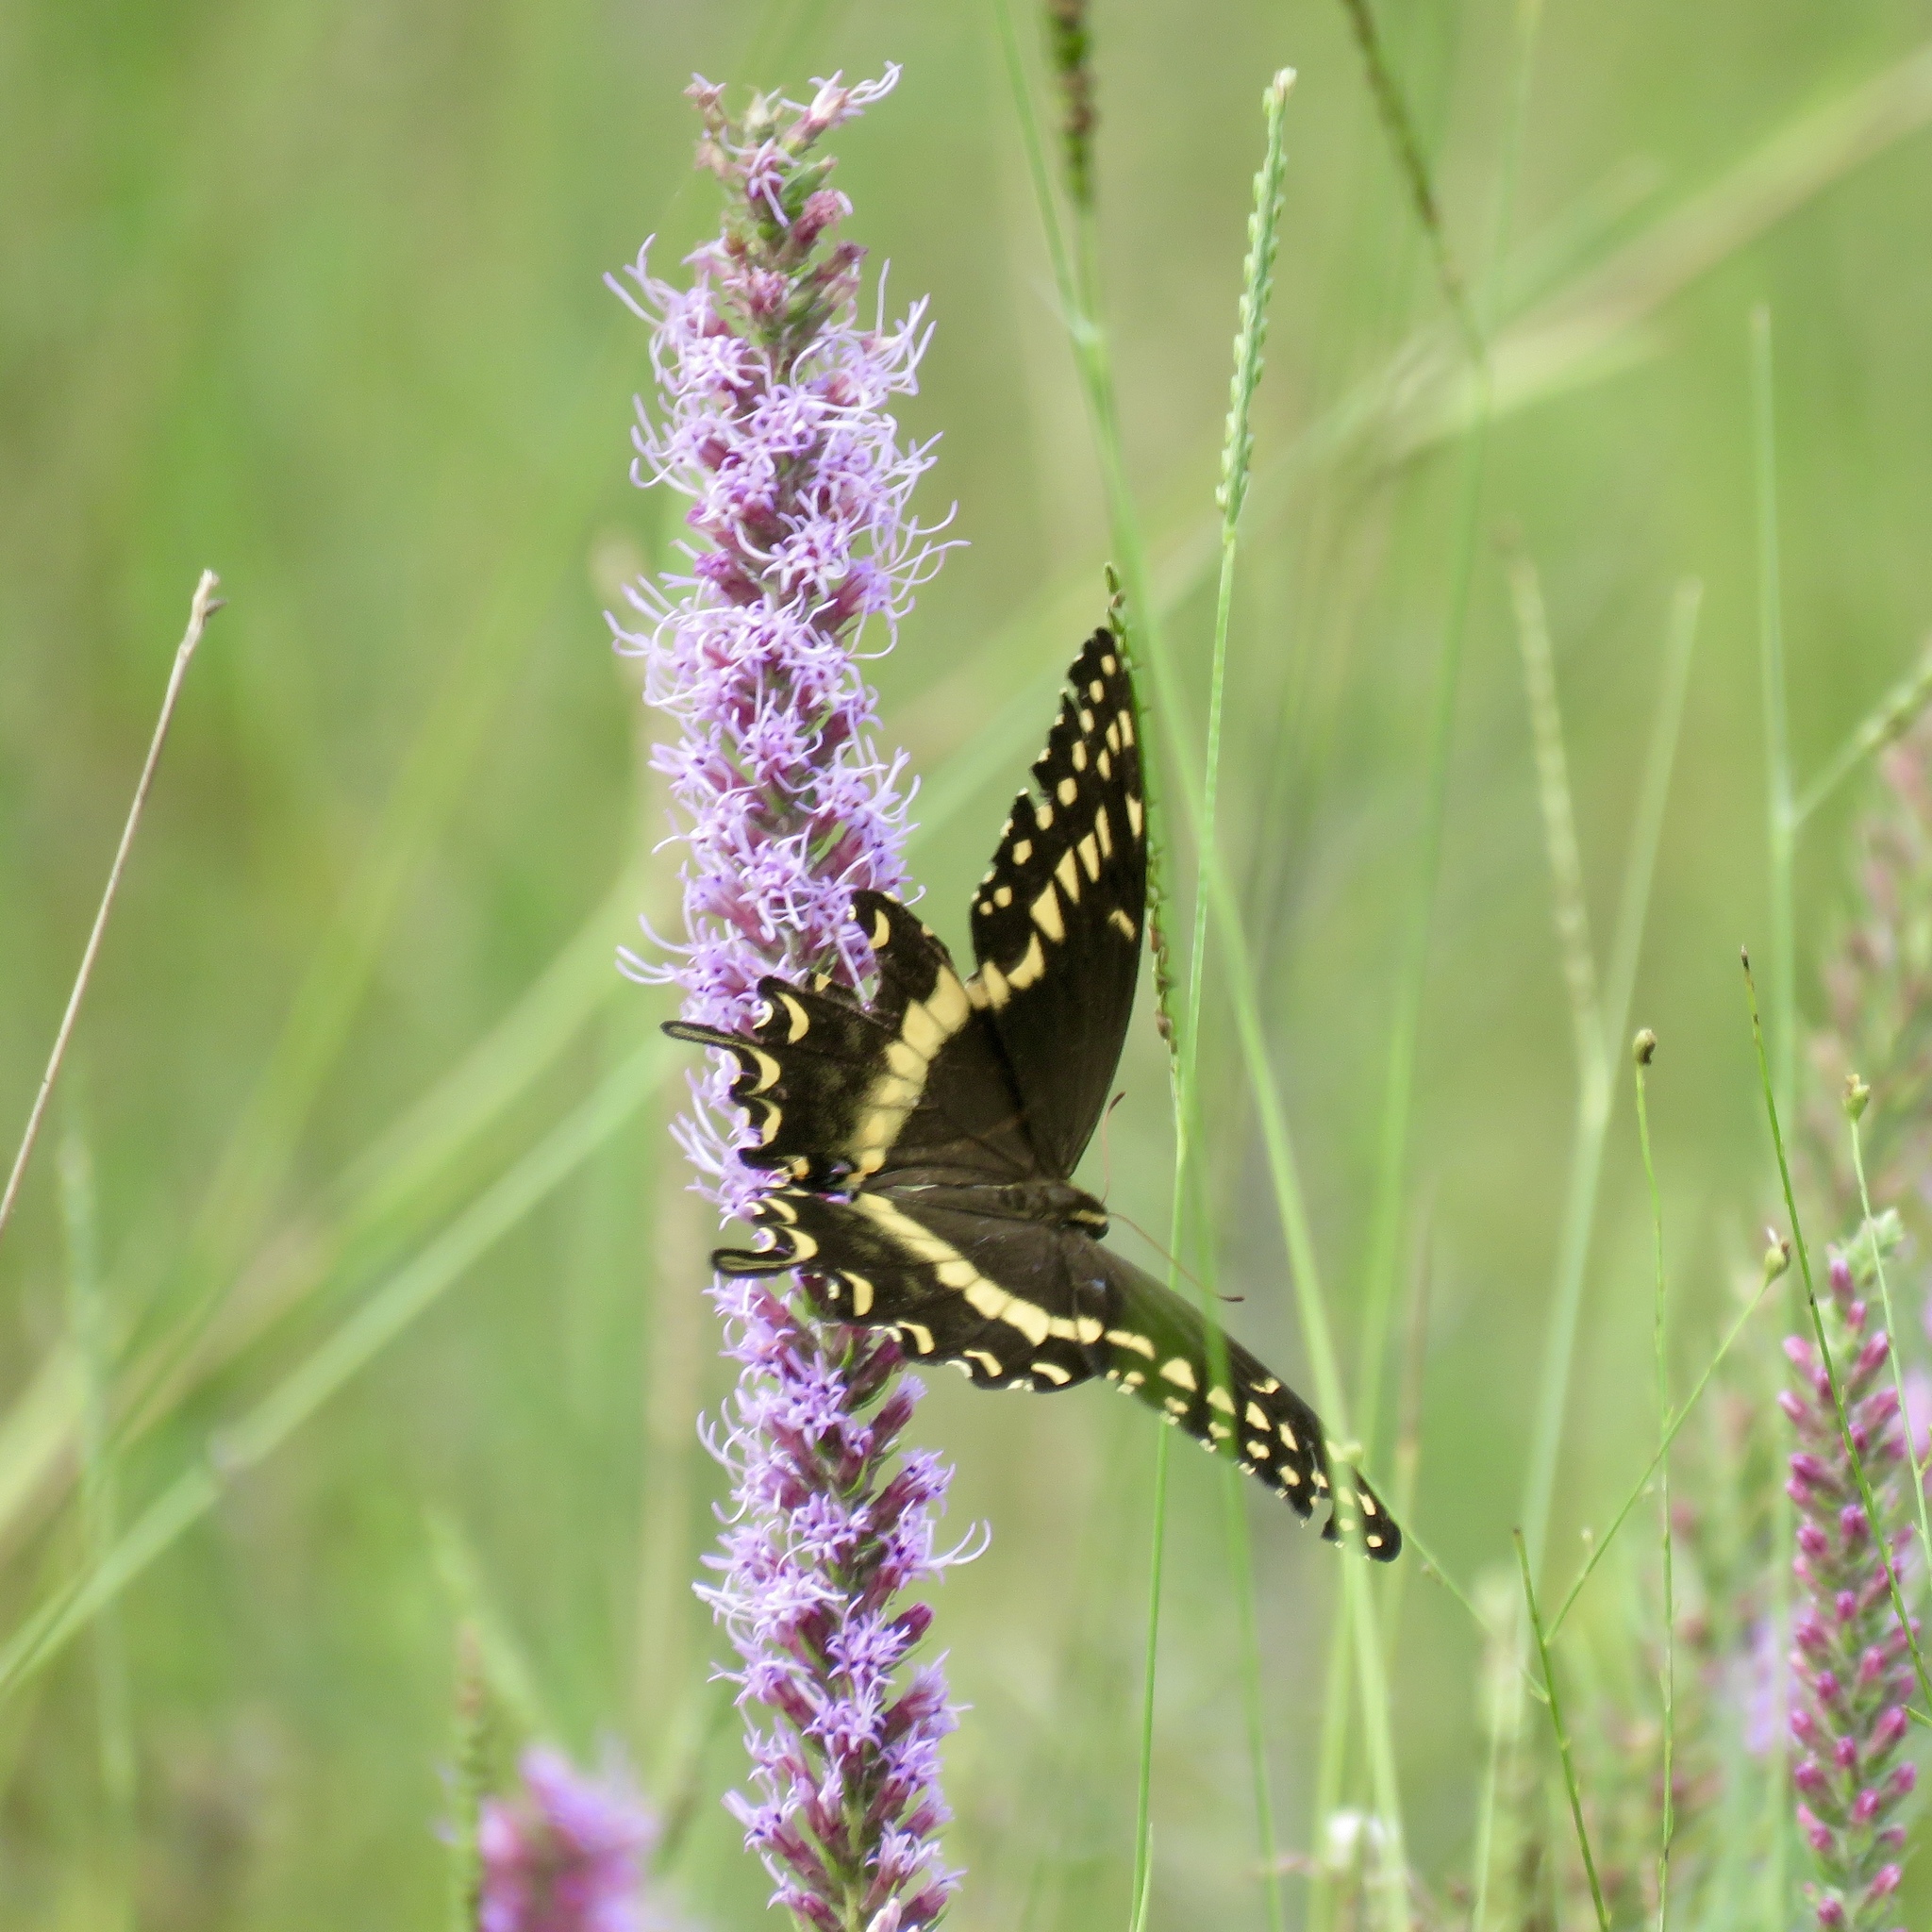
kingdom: Animalia
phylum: Arthropoda
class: Insecta
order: Lepidoptera
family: Papilionidae
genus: Papilio
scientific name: Papilio palamedes
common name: Palamedes swallowtail
